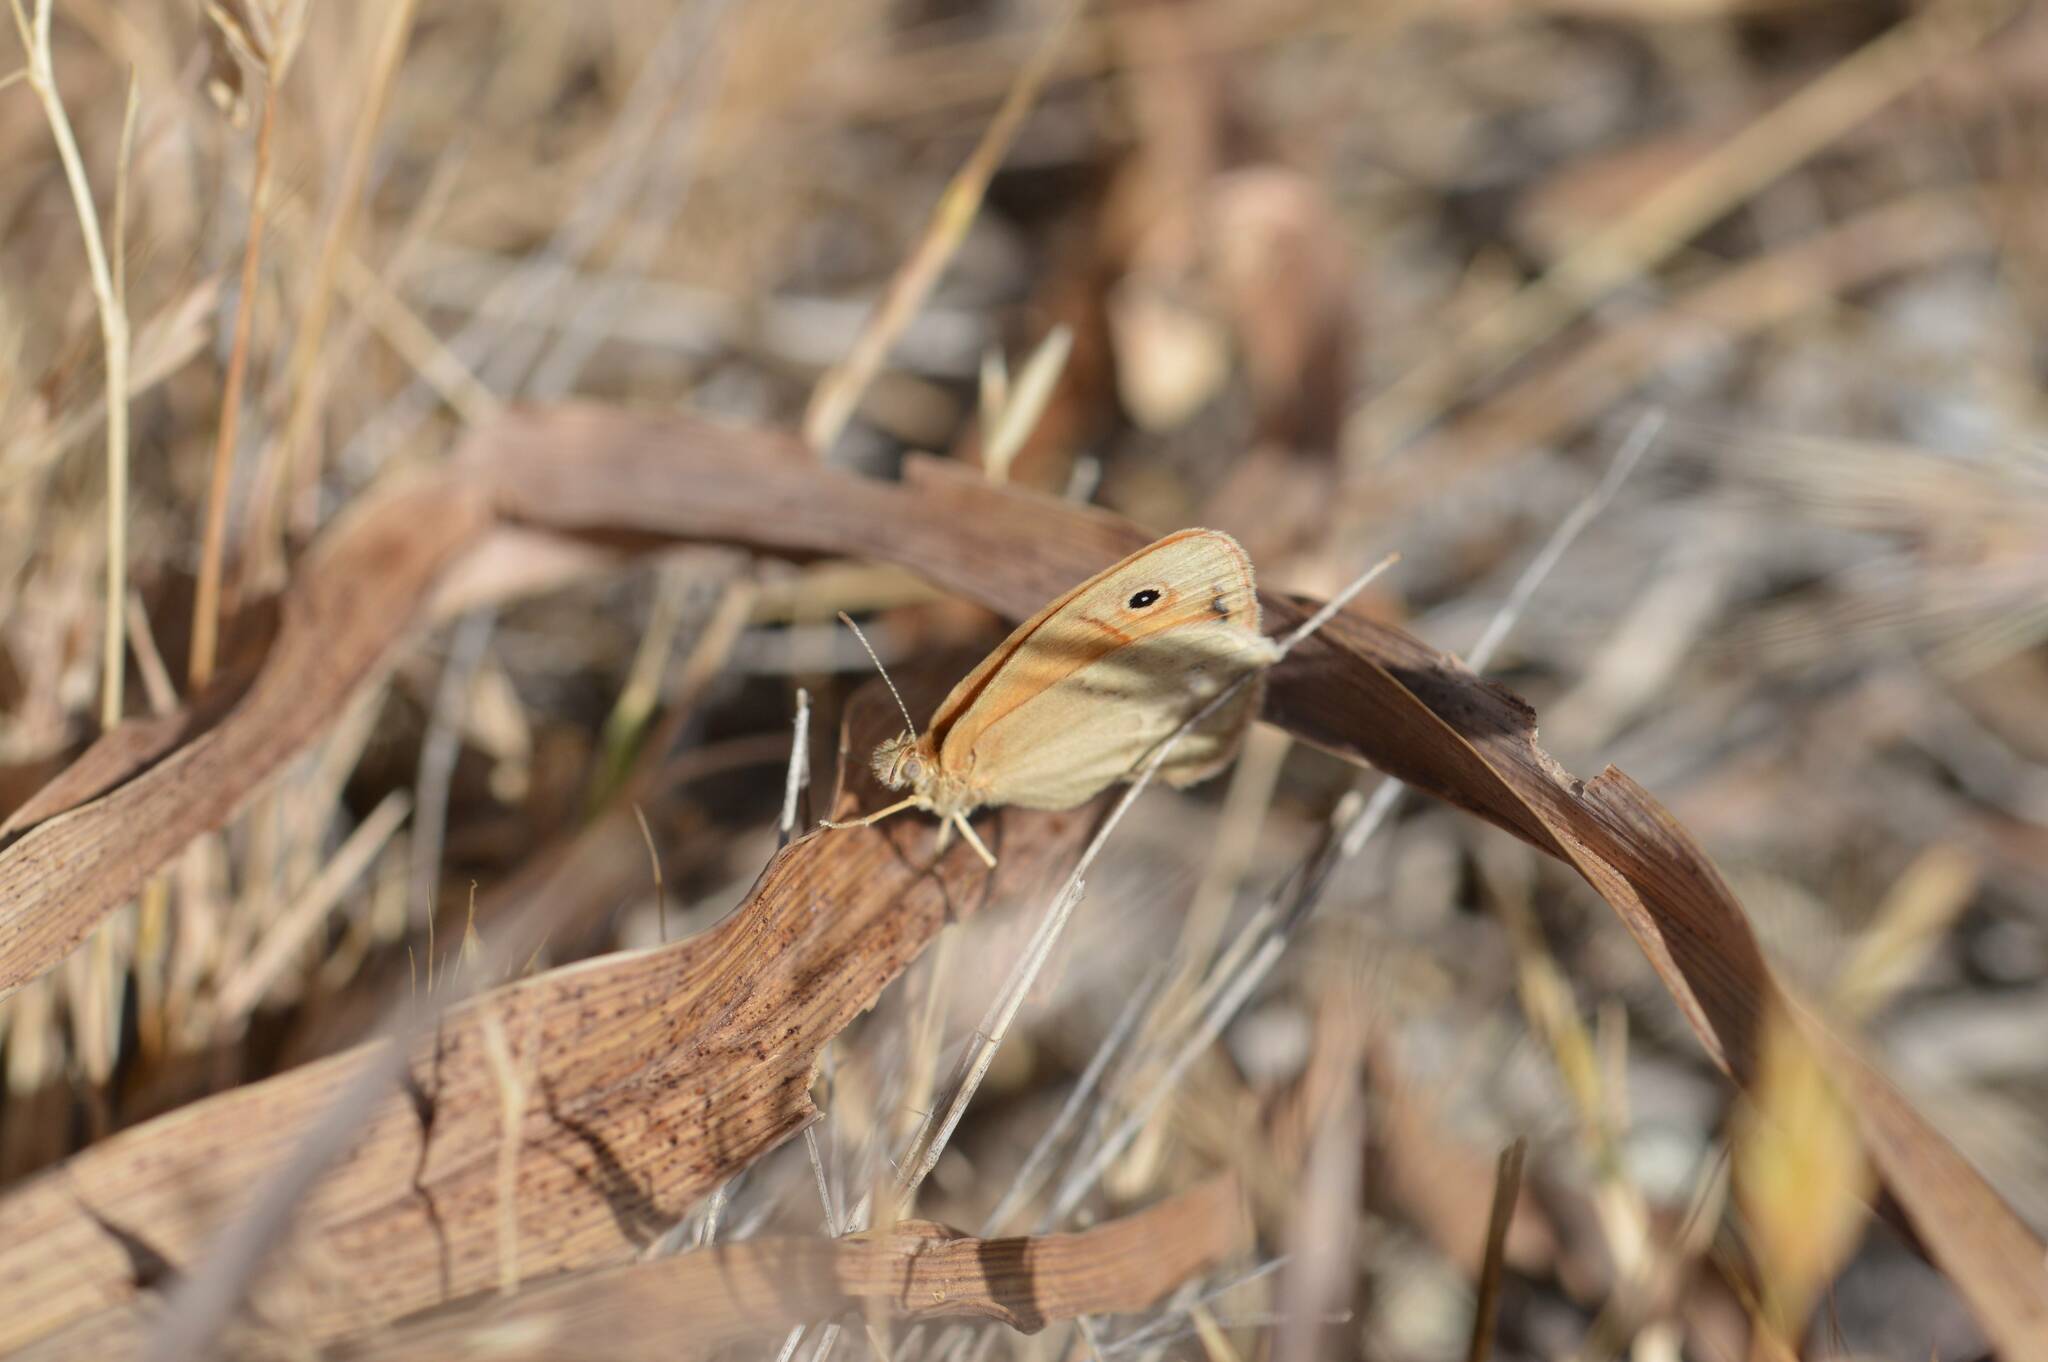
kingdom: Animalia
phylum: Arthropoda
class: Insecta
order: Lepidoptera
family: Nymphalidae
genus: Coenonympha
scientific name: Coenonympha pamphilus
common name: Small heath
